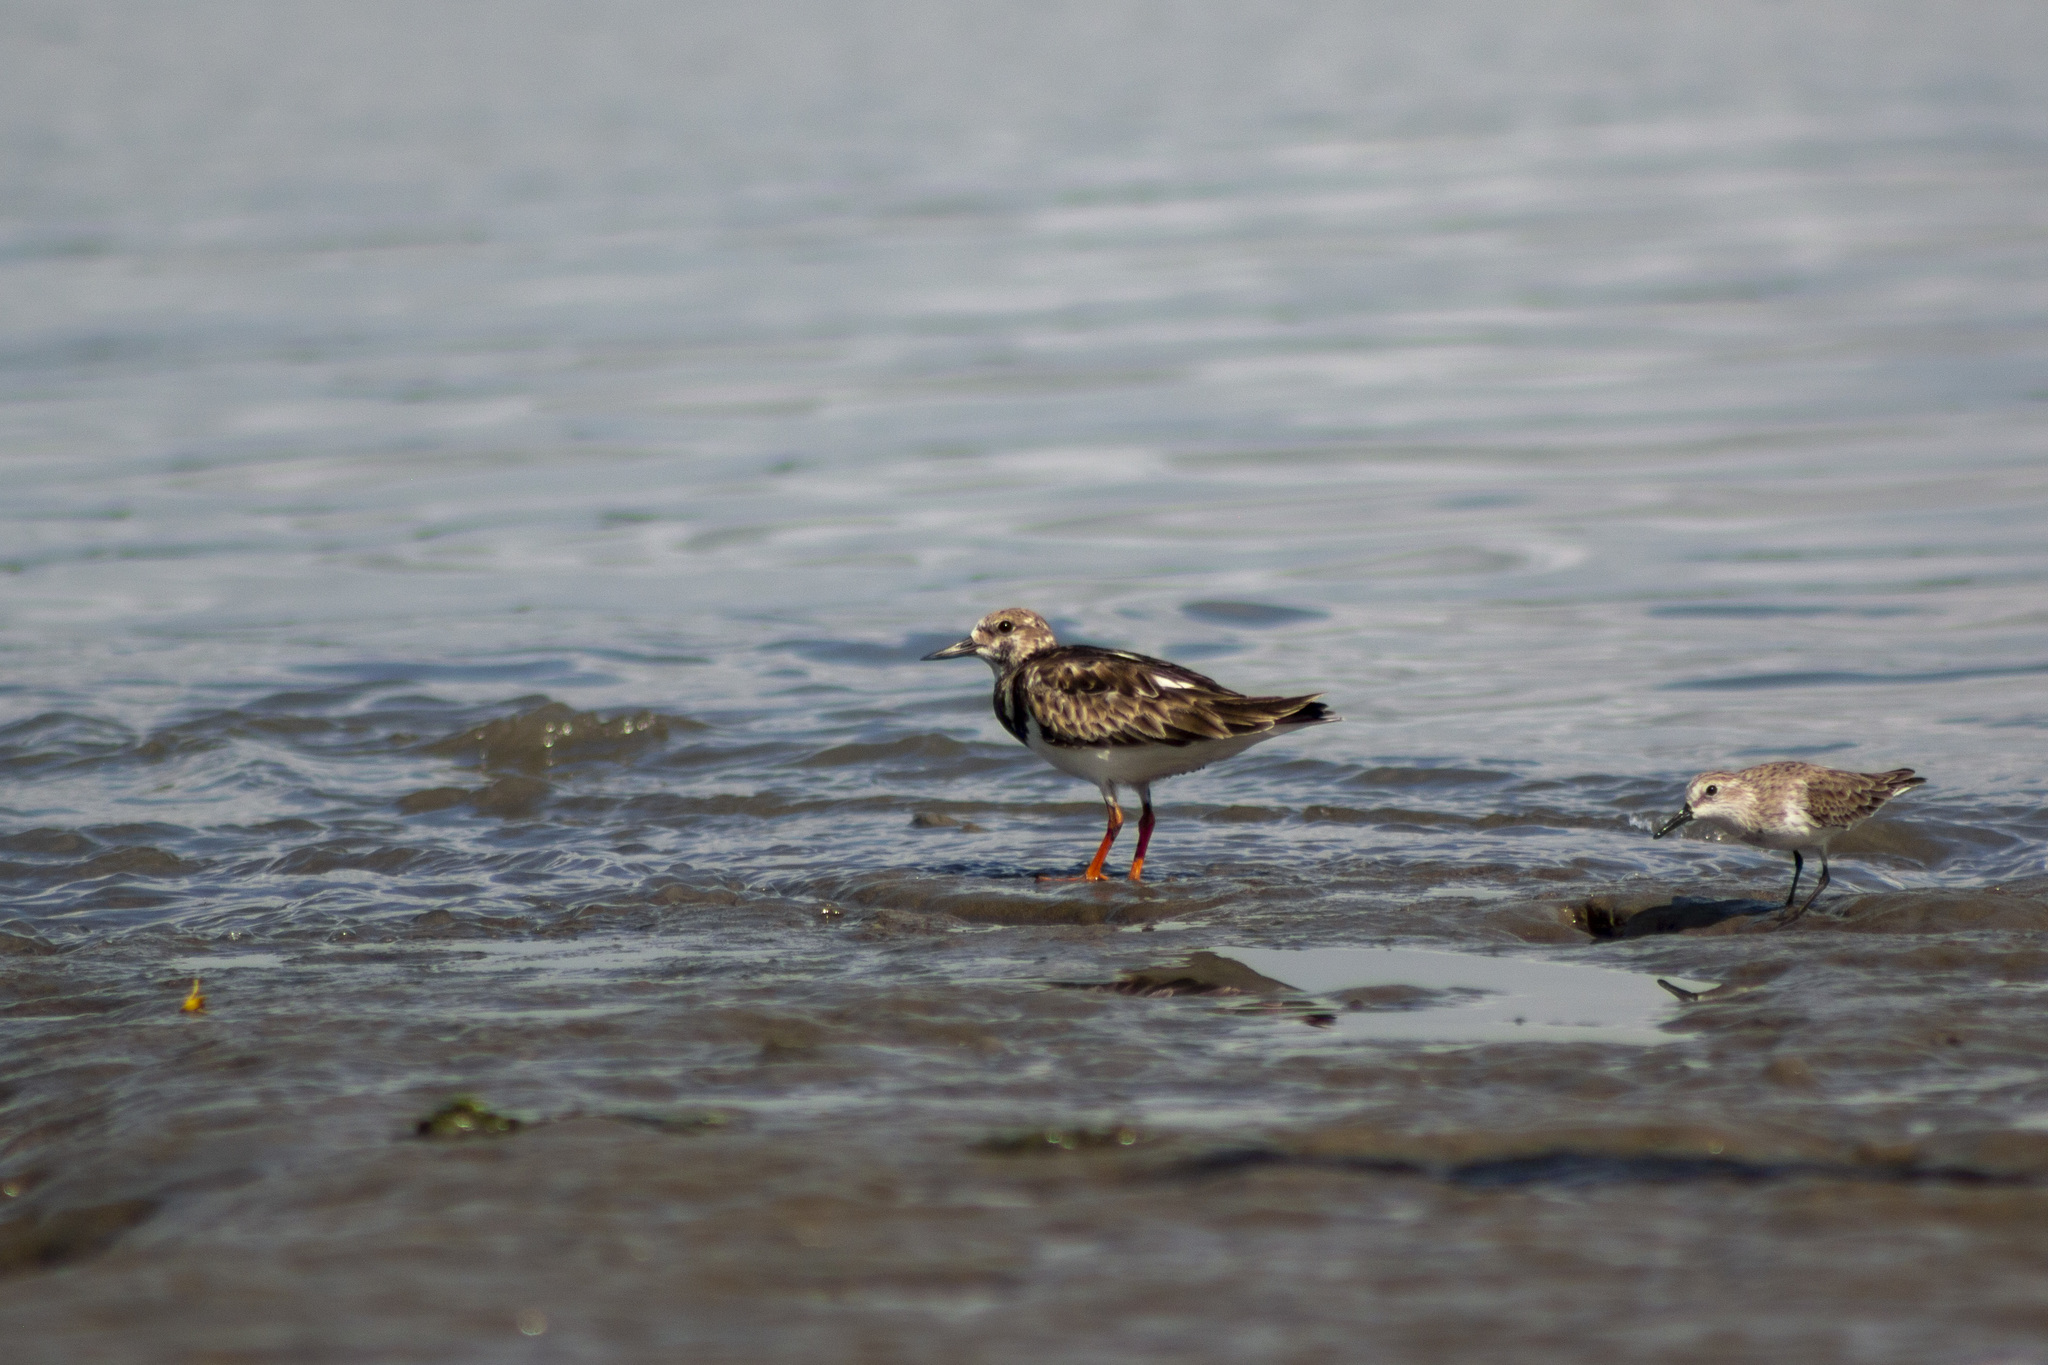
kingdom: Animalia
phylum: Chordata
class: Aves
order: Charadriiformes
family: Scolopacidae
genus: Arenaria
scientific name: Arenaria interpres
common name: Ruddy turnstone
